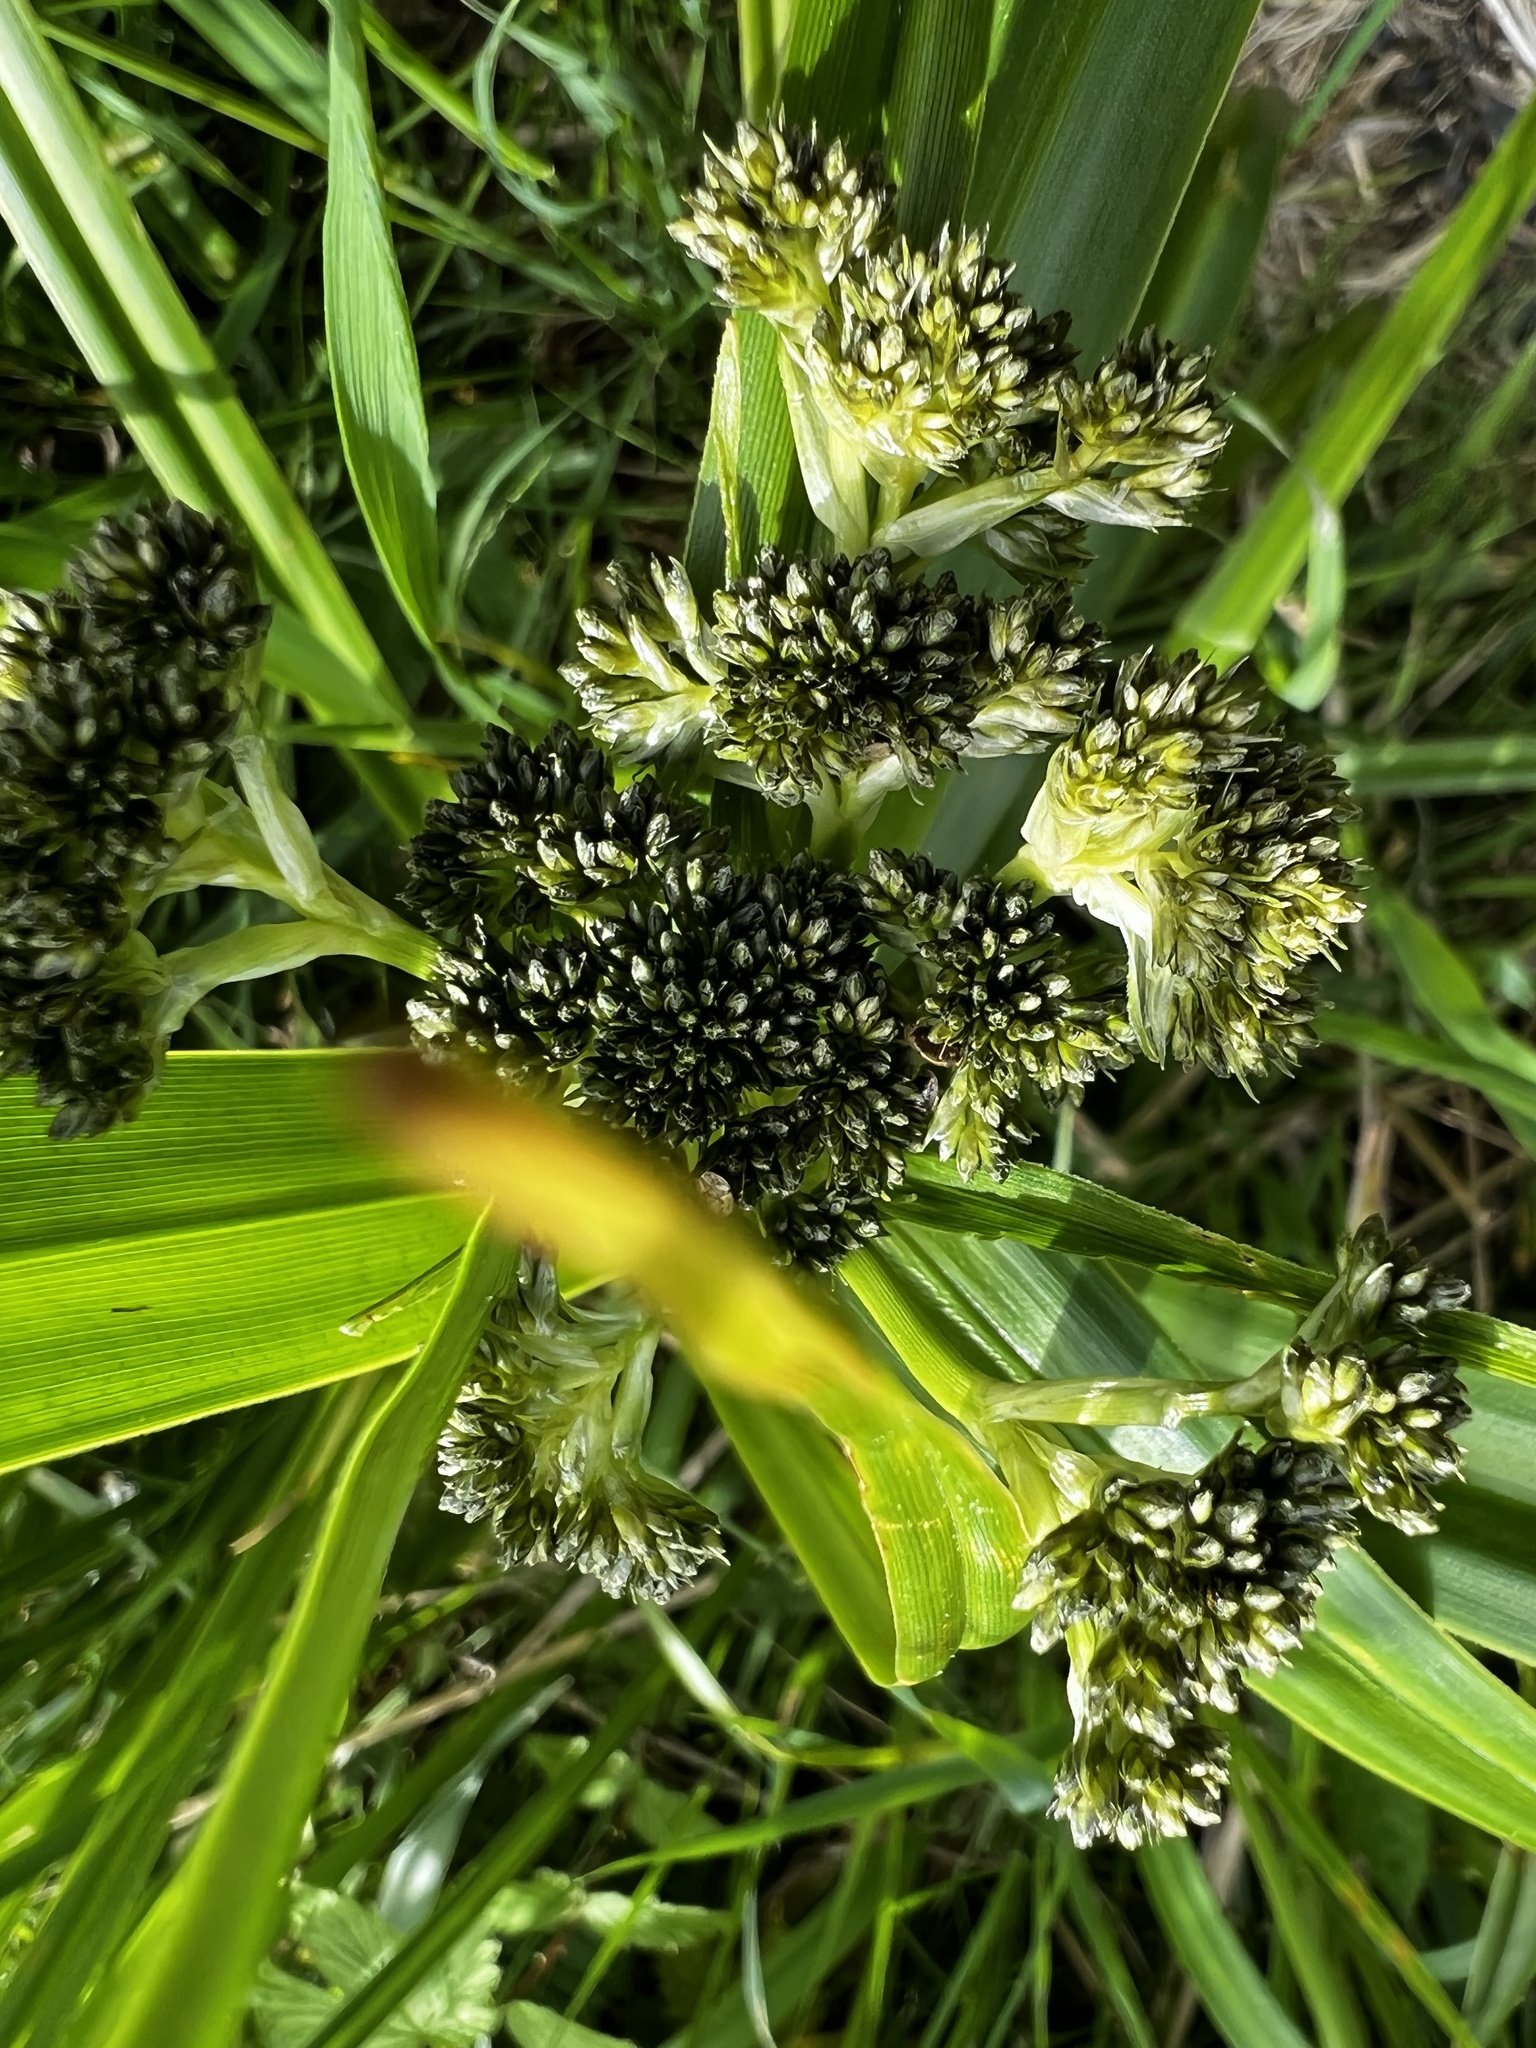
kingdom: Plantae
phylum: Tracheophyta
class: Liliopsida
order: Poales
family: Cyperaceae
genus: Scirpus
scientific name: Scirpus sylvaticus
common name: Wood club-rush
